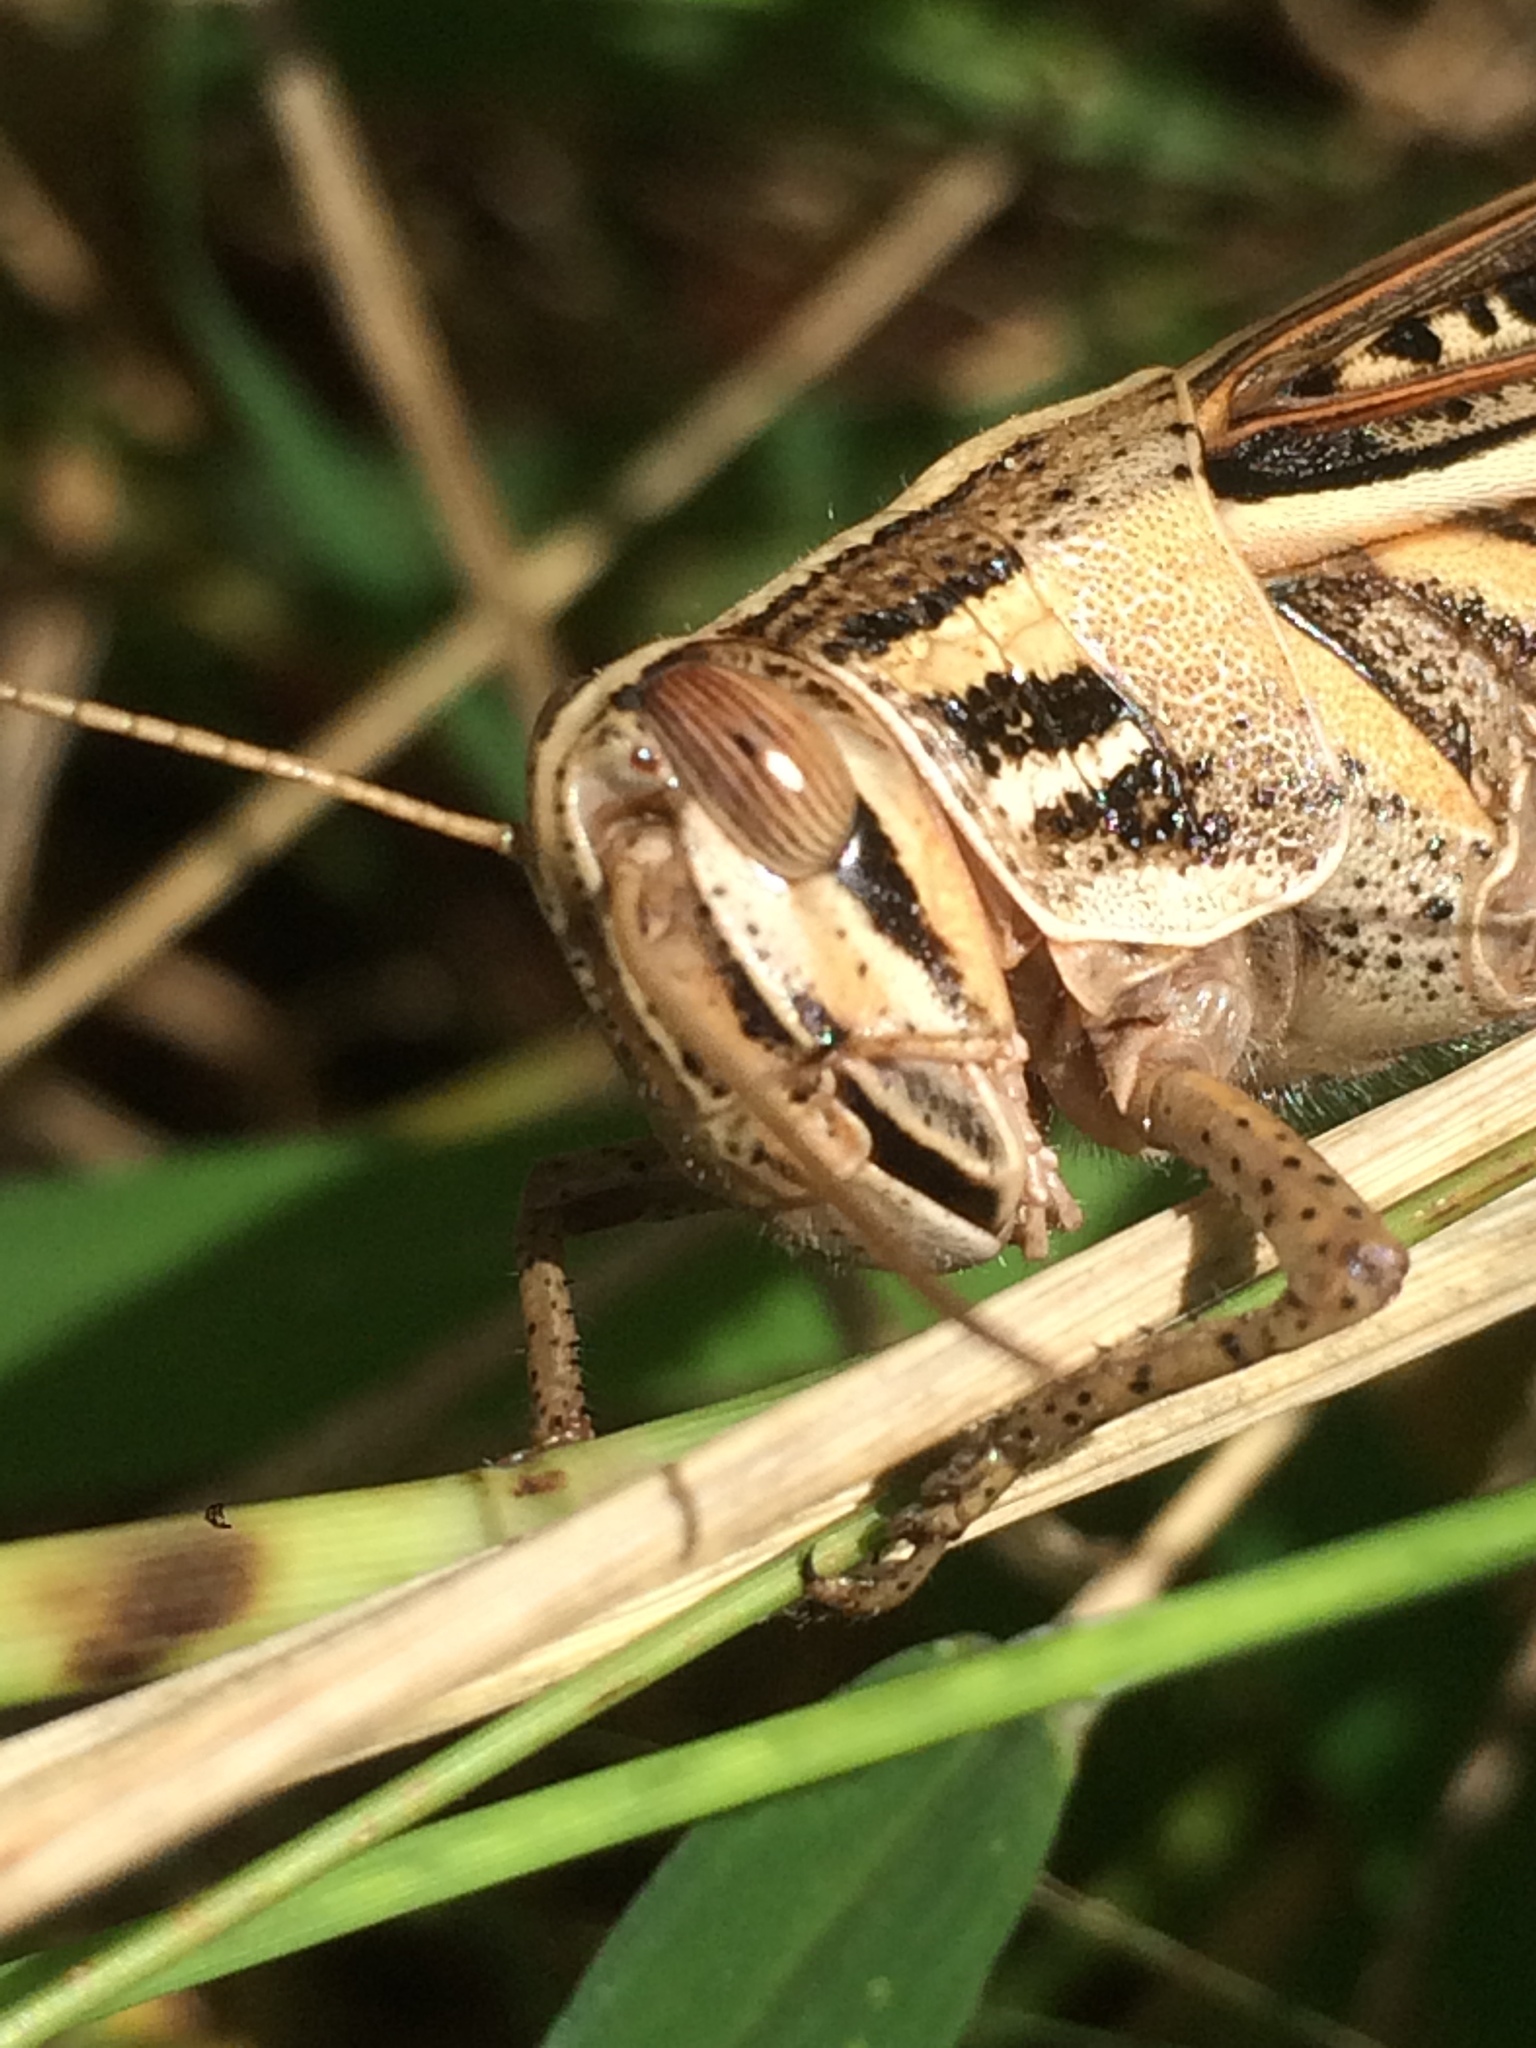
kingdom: Animalia
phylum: Arthropoda
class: Insecta
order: Orthoptera
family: Acrididae
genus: Schistocerca
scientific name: Schistocerca americana
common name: American bird locust
